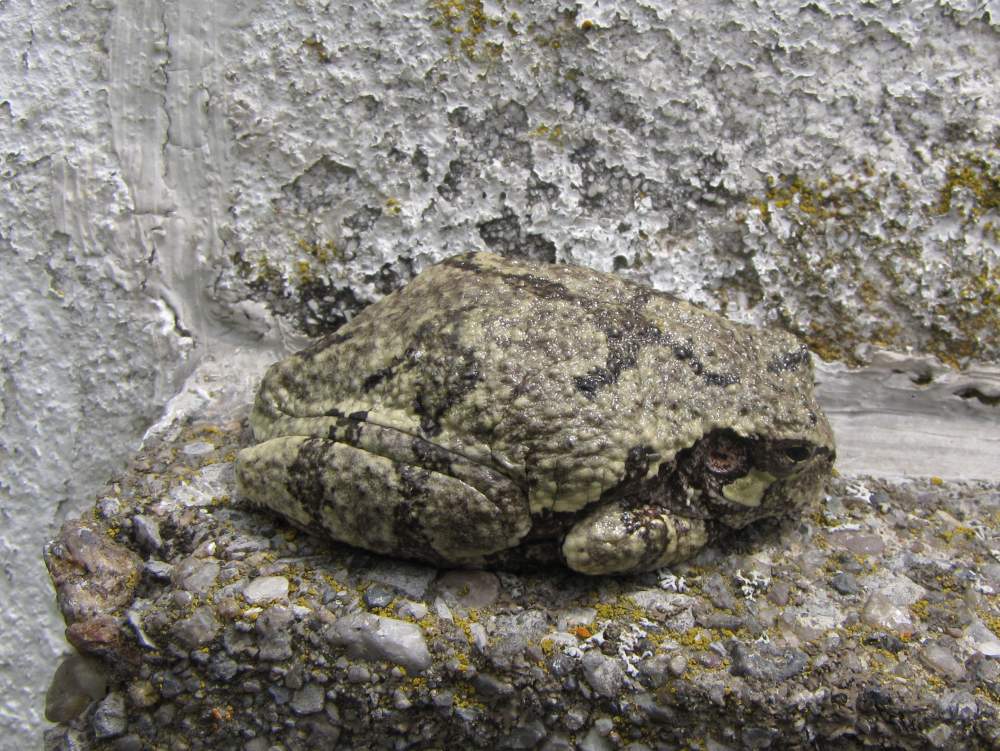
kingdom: Animalia
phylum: Chordata
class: Amphibia
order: Anura
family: Hylidae
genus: Dryophytes
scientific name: Dryophytes versicolor
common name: Gray treefrog
